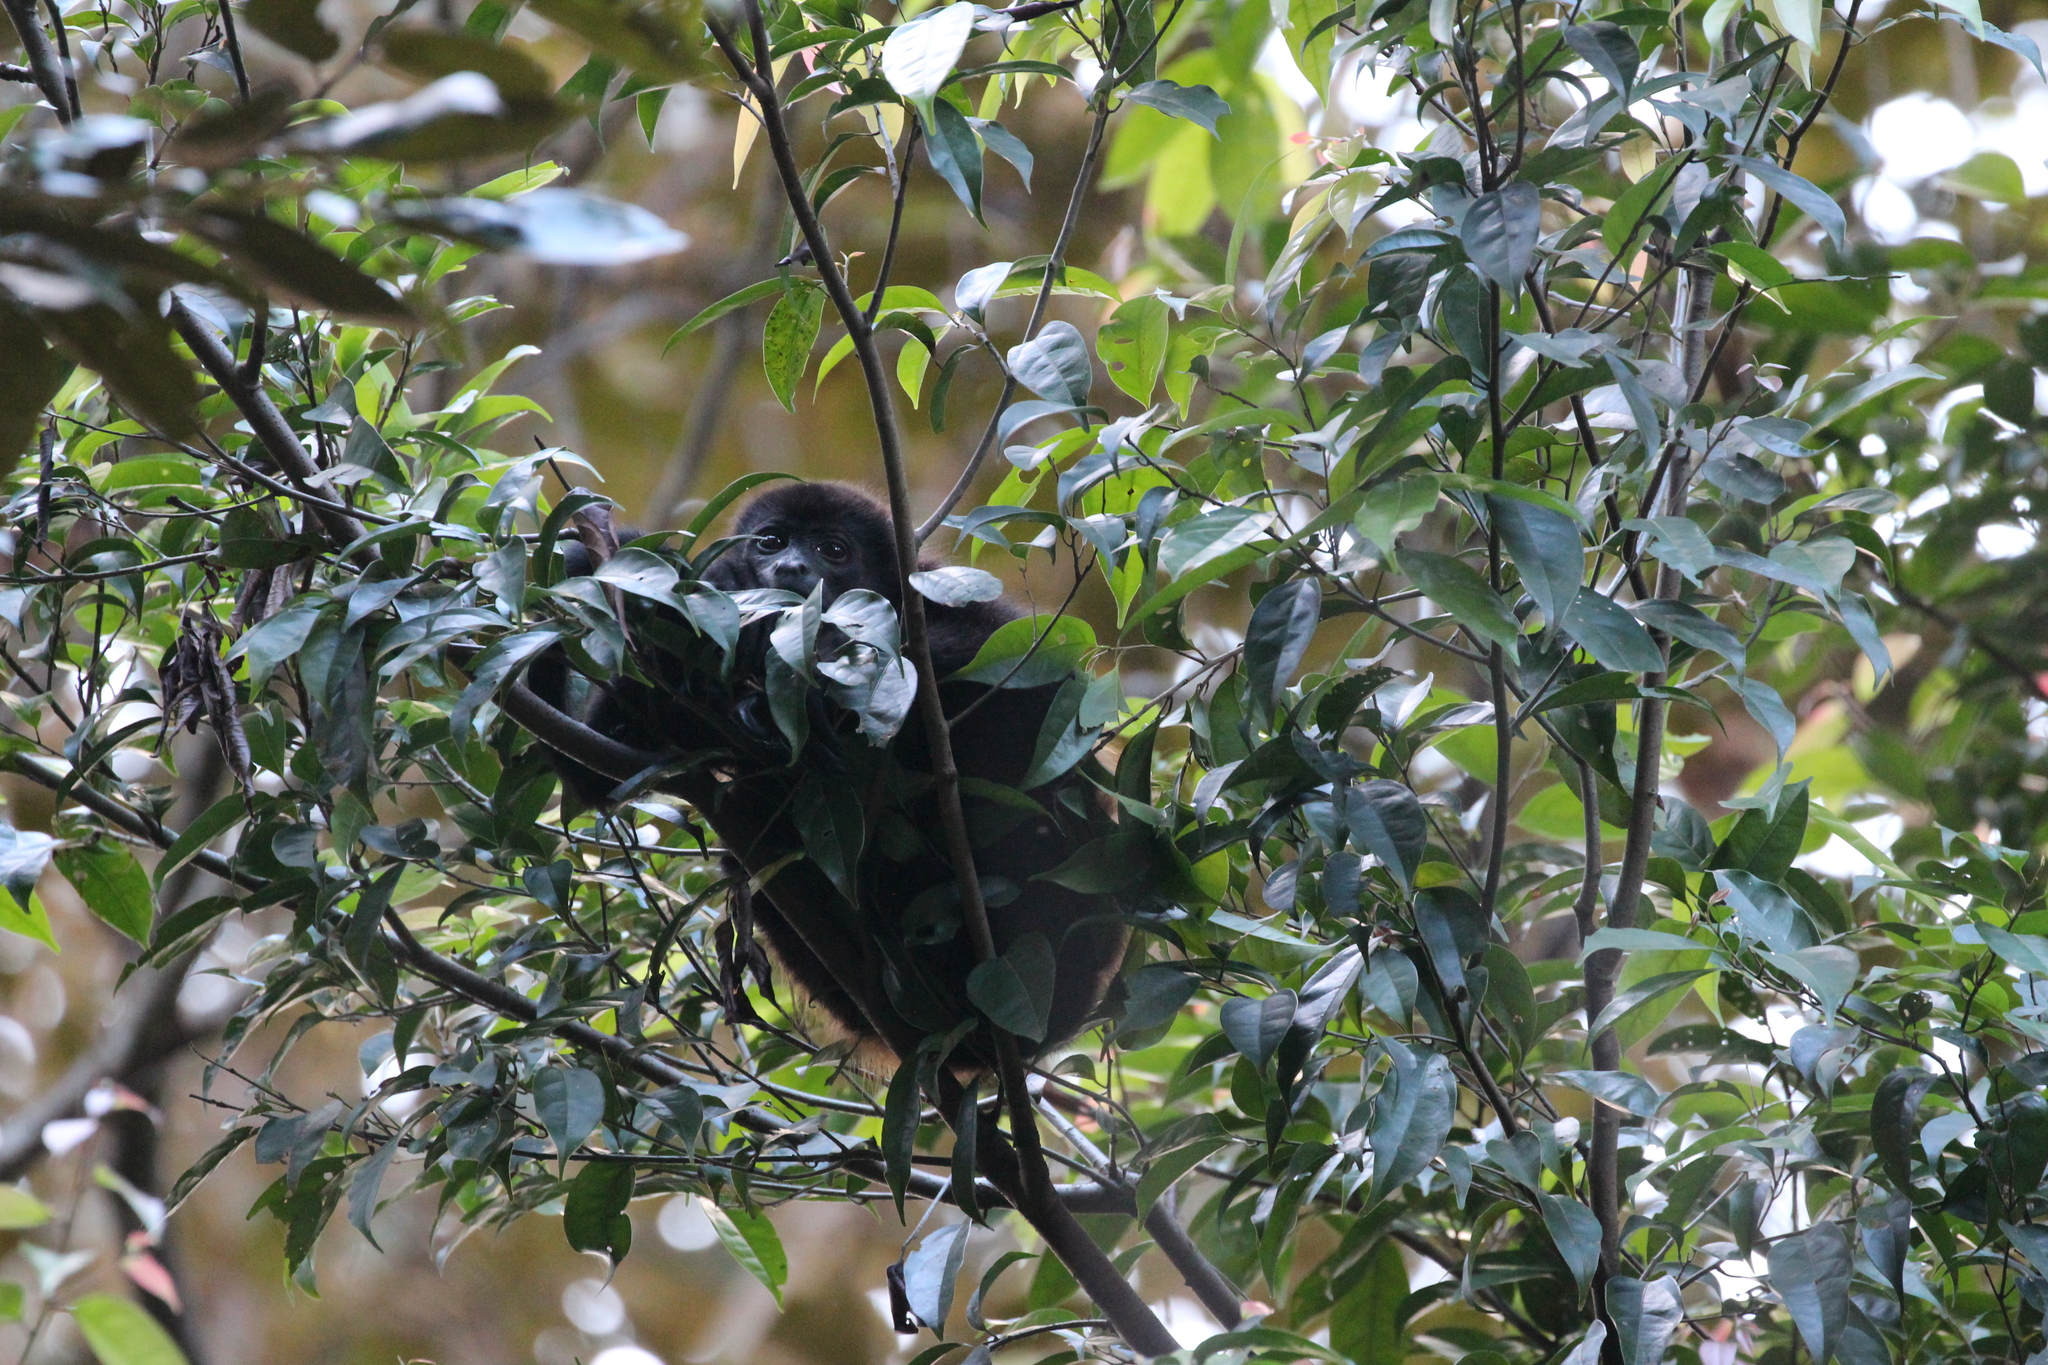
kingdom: Animalia
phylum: Chordata
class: Mammalia
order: Primates
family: Atelidae
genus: Alouatta
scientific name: Alouatta palliata
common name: Mantled howler
